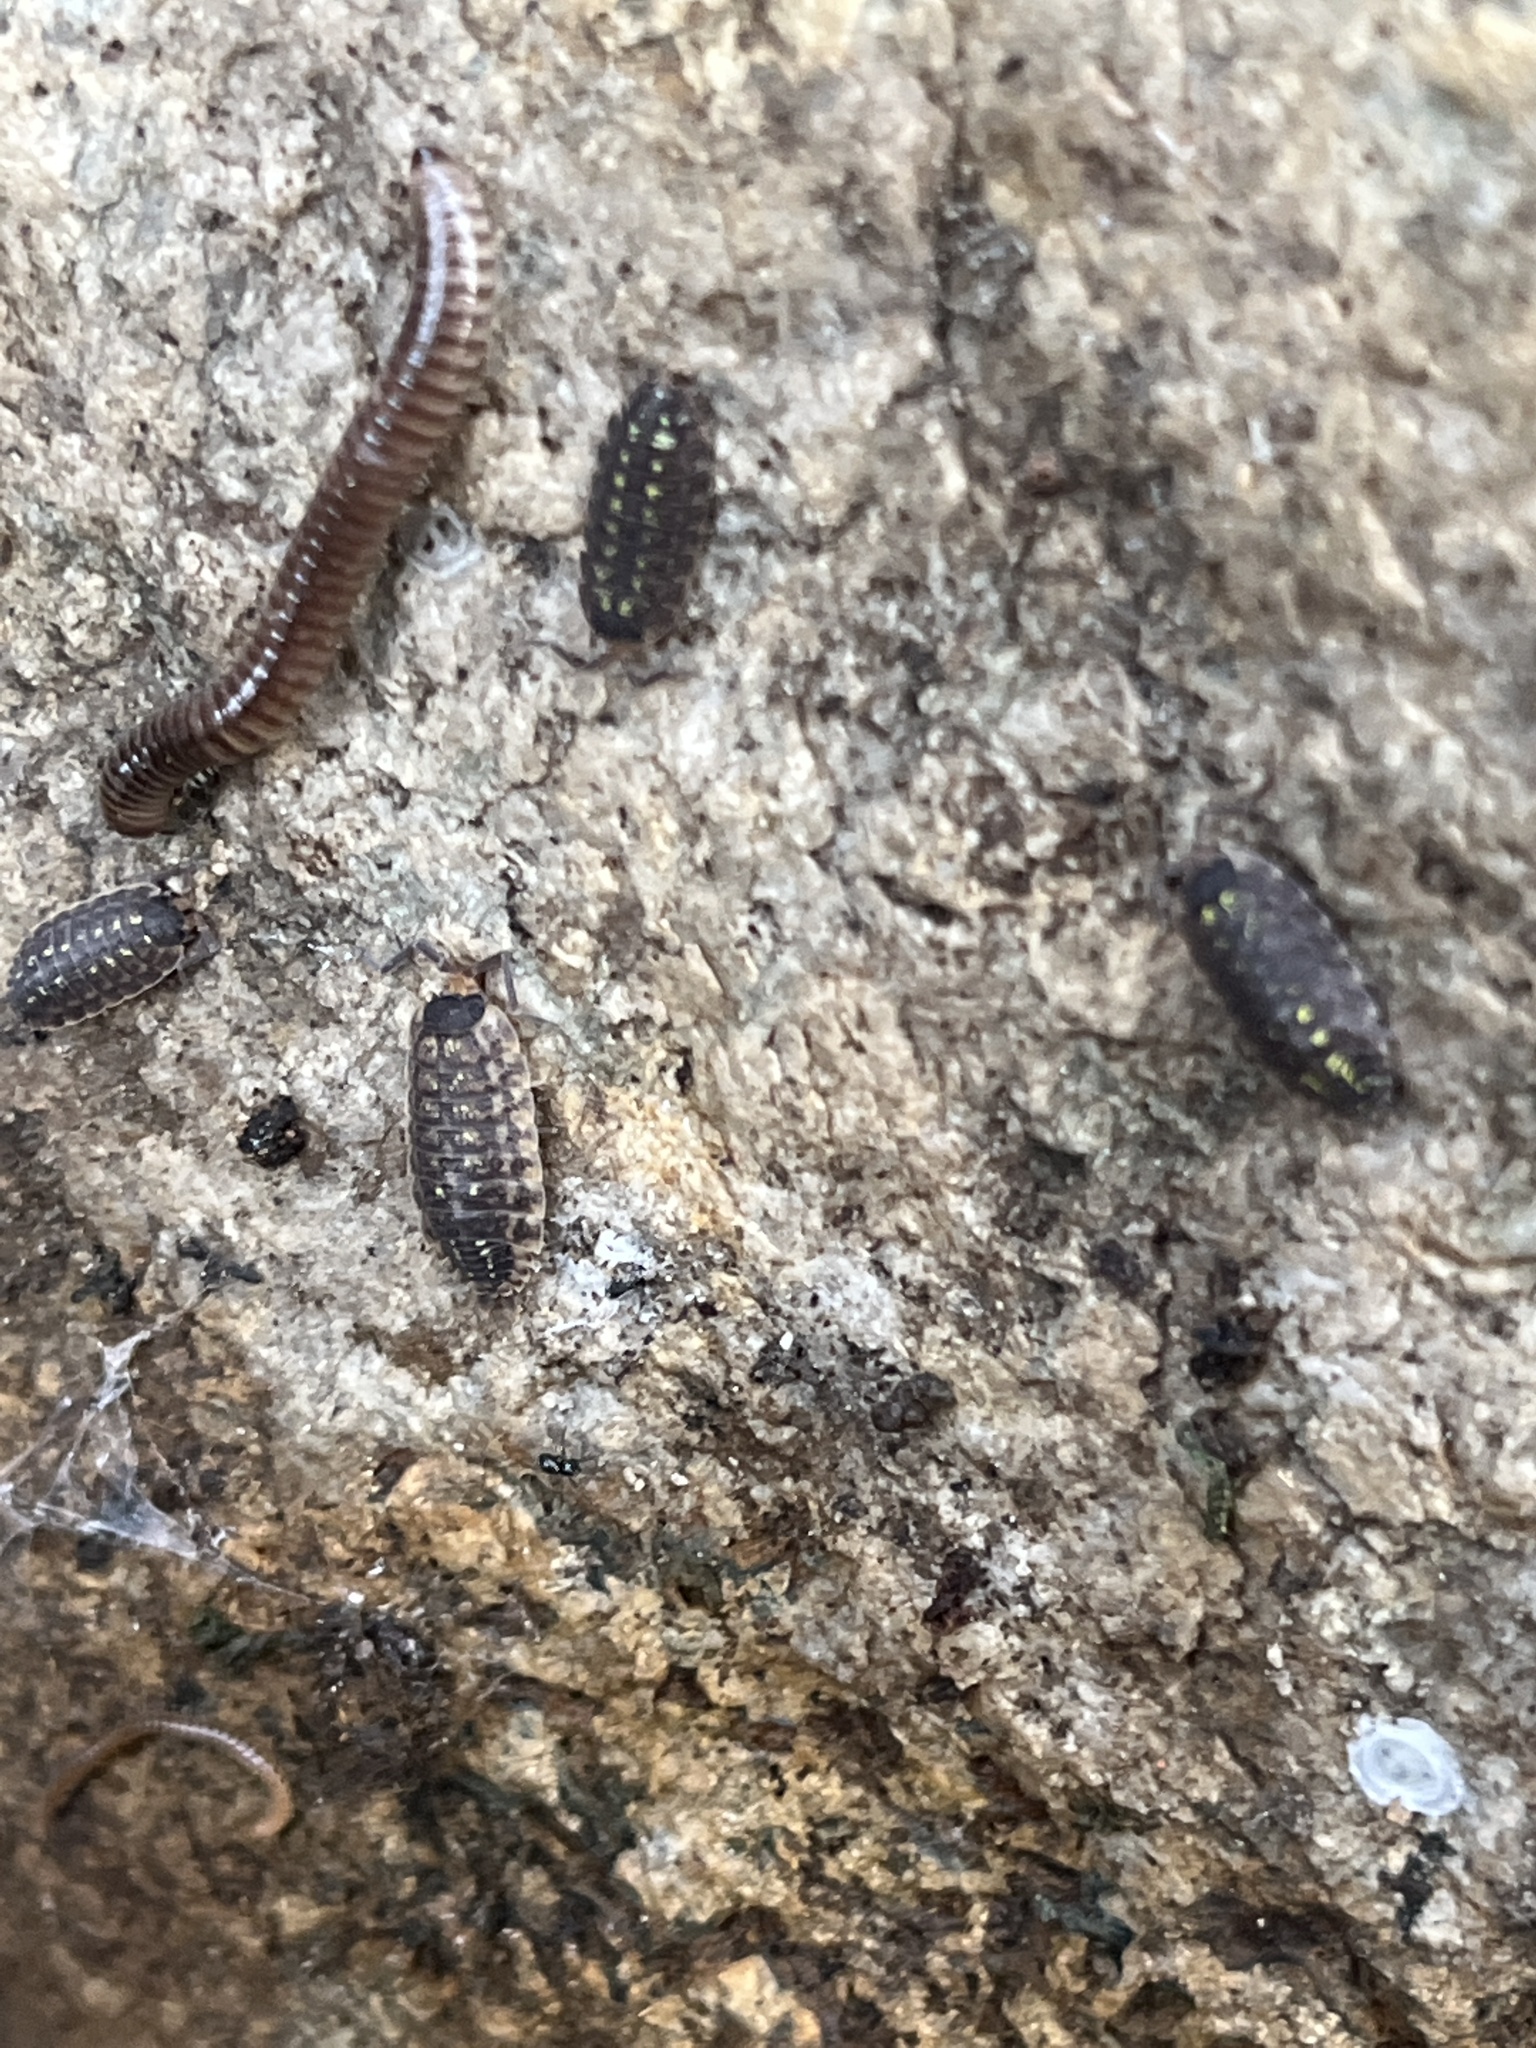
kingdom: Animalia
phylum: Arthropoda
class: Malacostraca
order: Isopoda
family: Porcellionidae
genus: Porcellio
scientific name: Porcellio spinicornis
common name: Painted woodlouse
